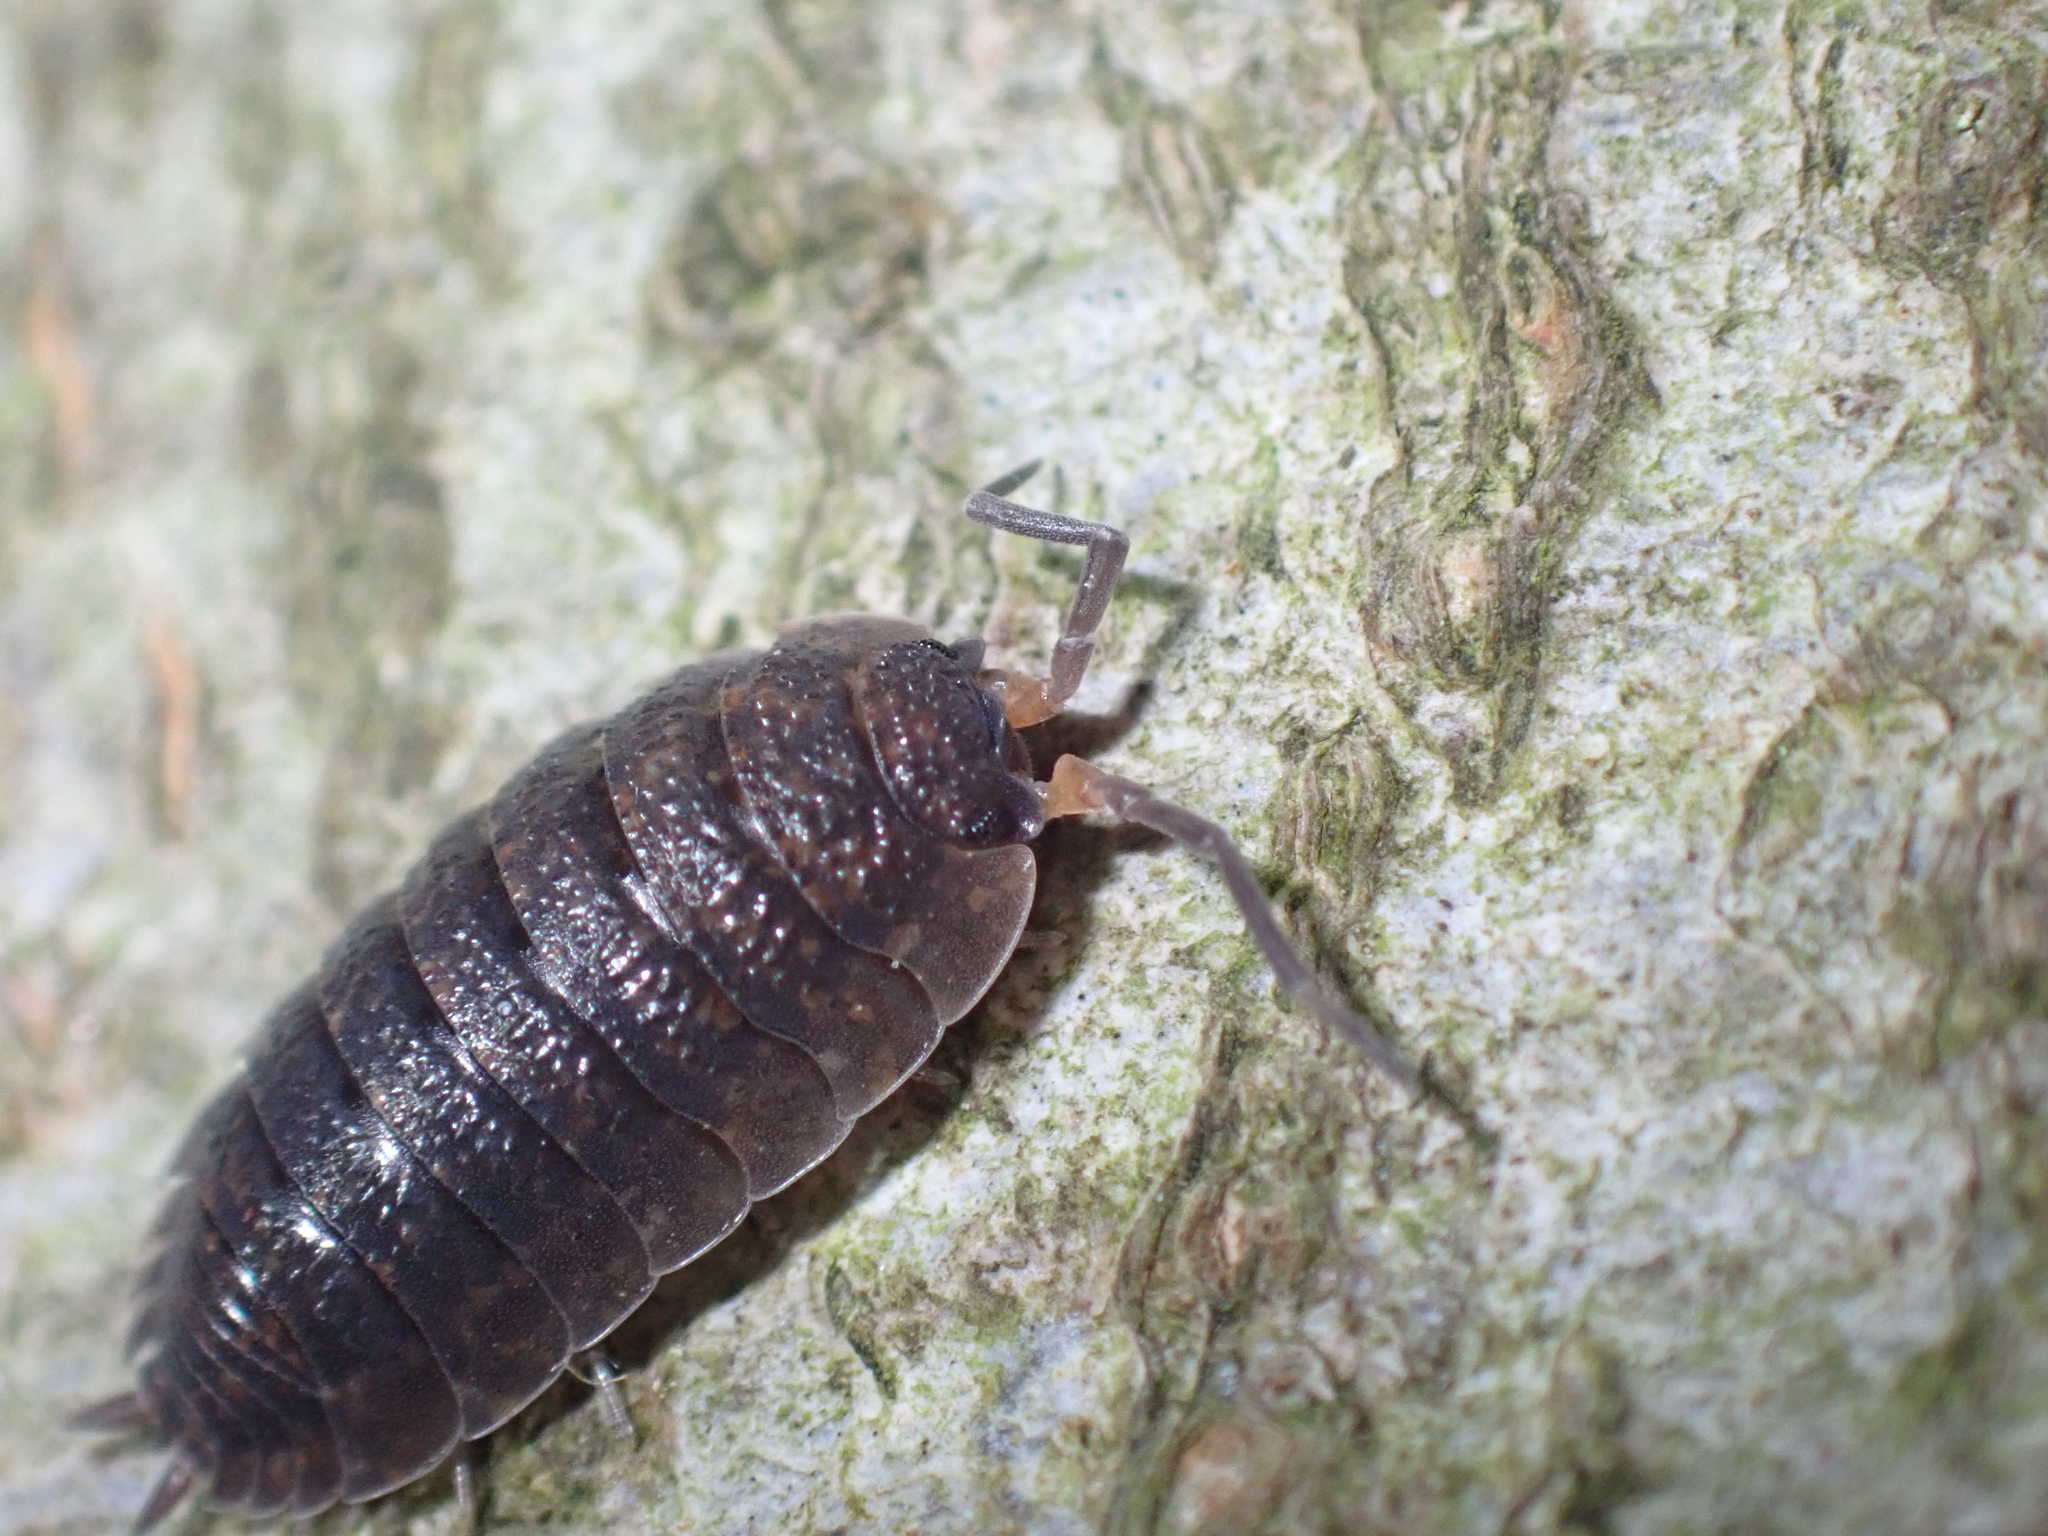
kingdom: Animalia
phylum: Arthropoda
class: Malacostraca
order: Isopoda
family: Porcellionidae
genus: Porcellio
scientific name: Porcellio scaber
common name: Common rough woodlouse
